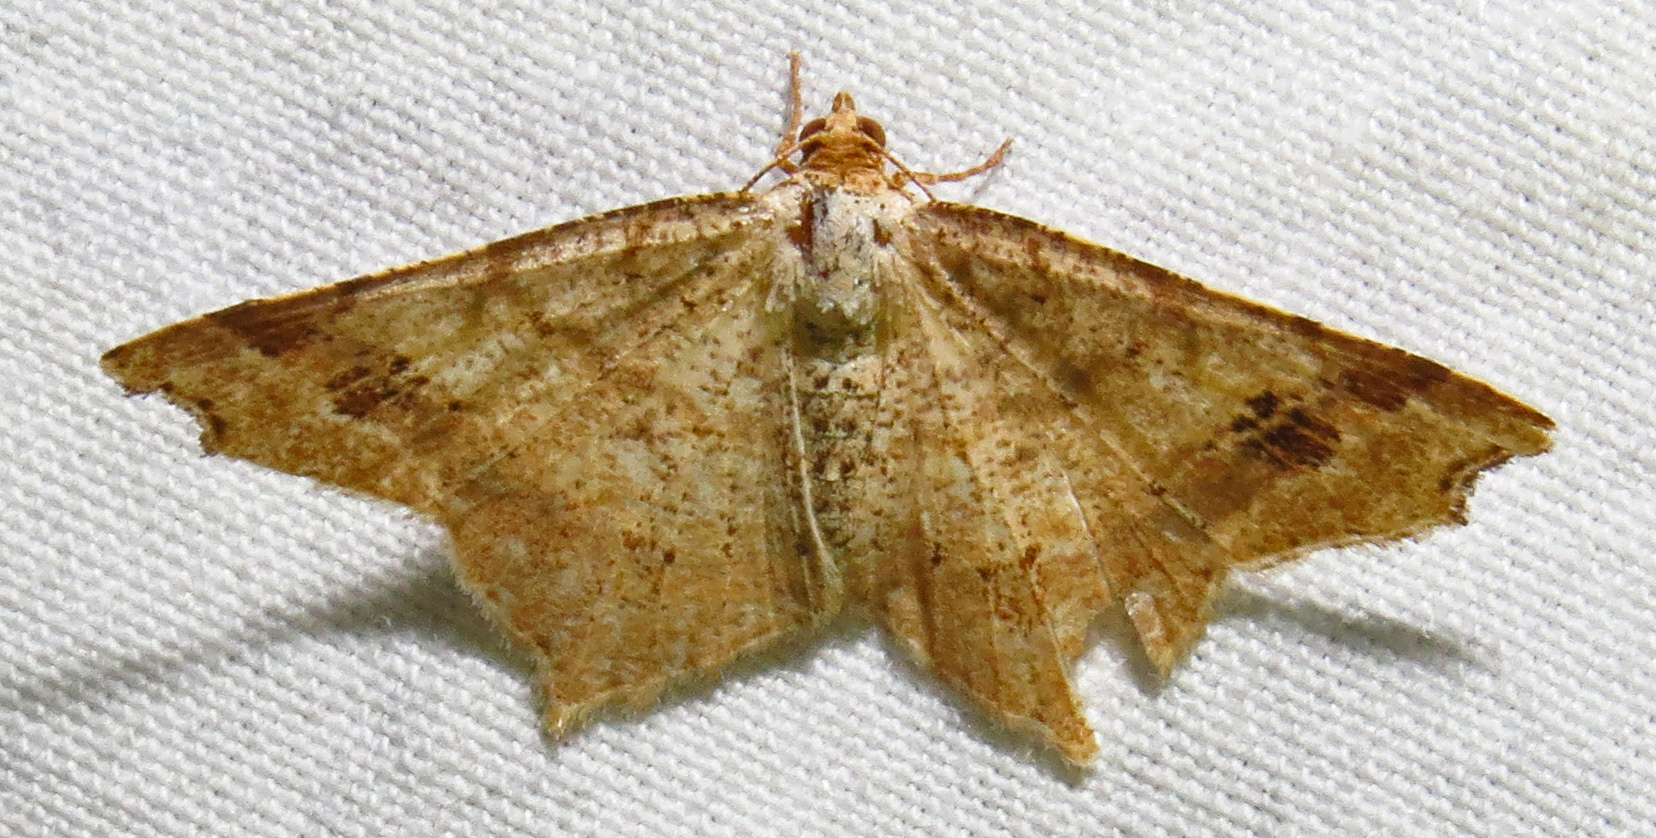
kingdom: Animalia
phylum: Arthropoda
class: Insecta
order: Lepidoptera
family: Geometridae
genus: Macaria
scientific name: Macaria promiscuata
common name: Promiscuous angle
